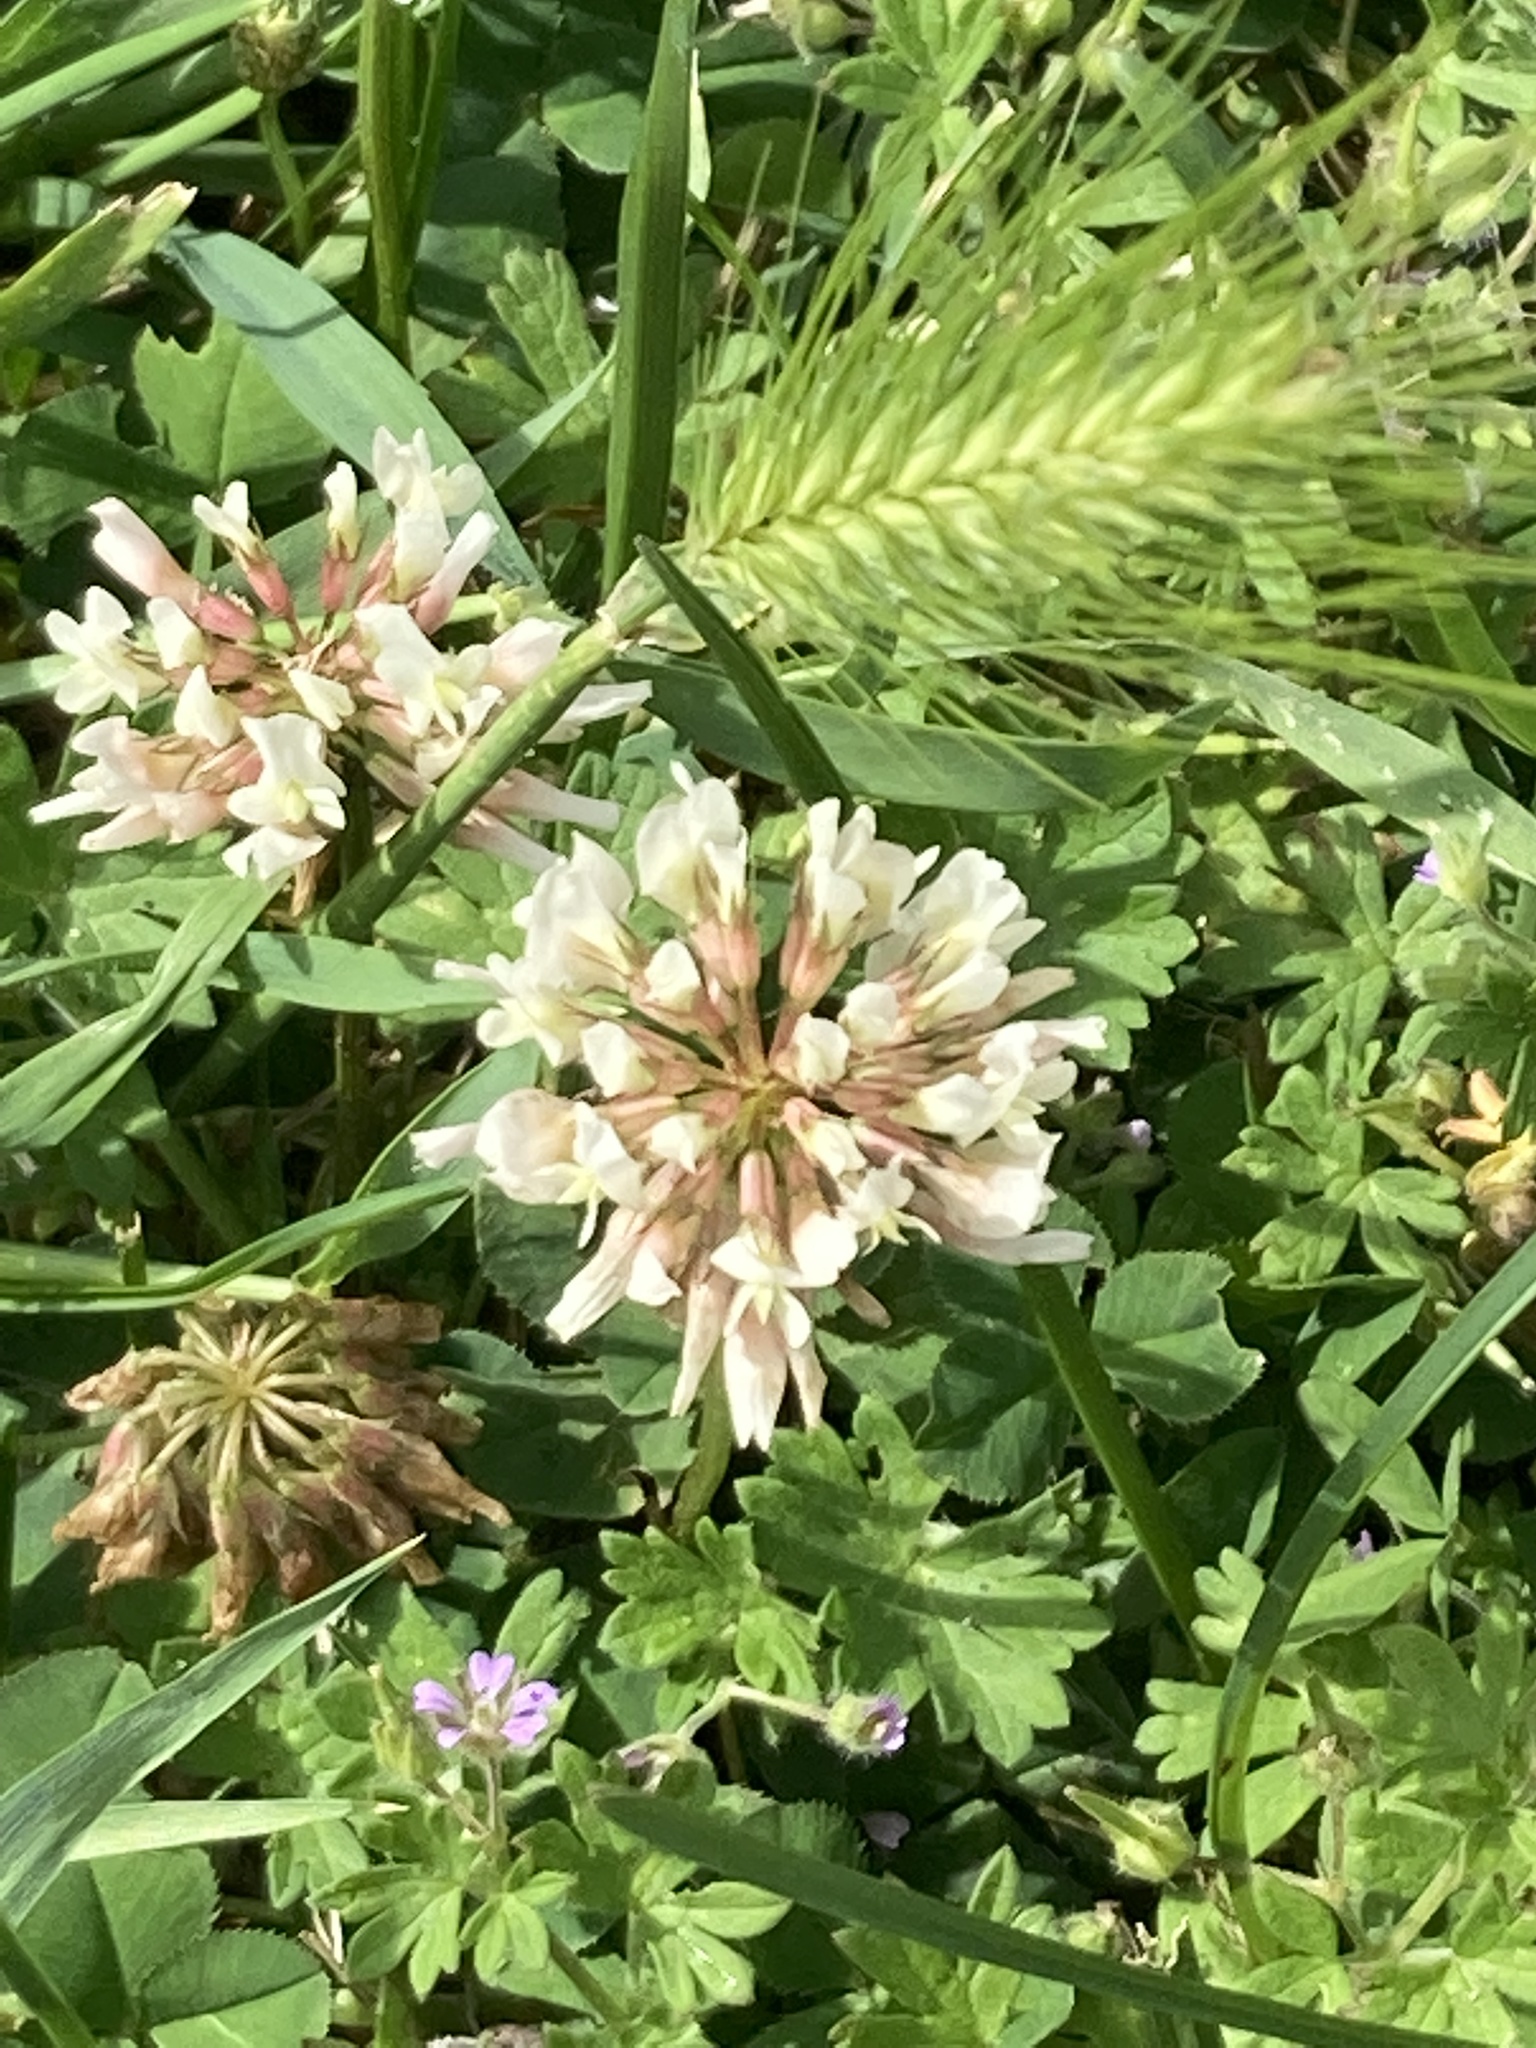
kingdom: Plantae
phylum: Tracheophyta
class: Magnoliopsida
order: Fabales
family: Fabaceae
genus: Trifolium
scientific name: Trifolium repens
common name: White clover
